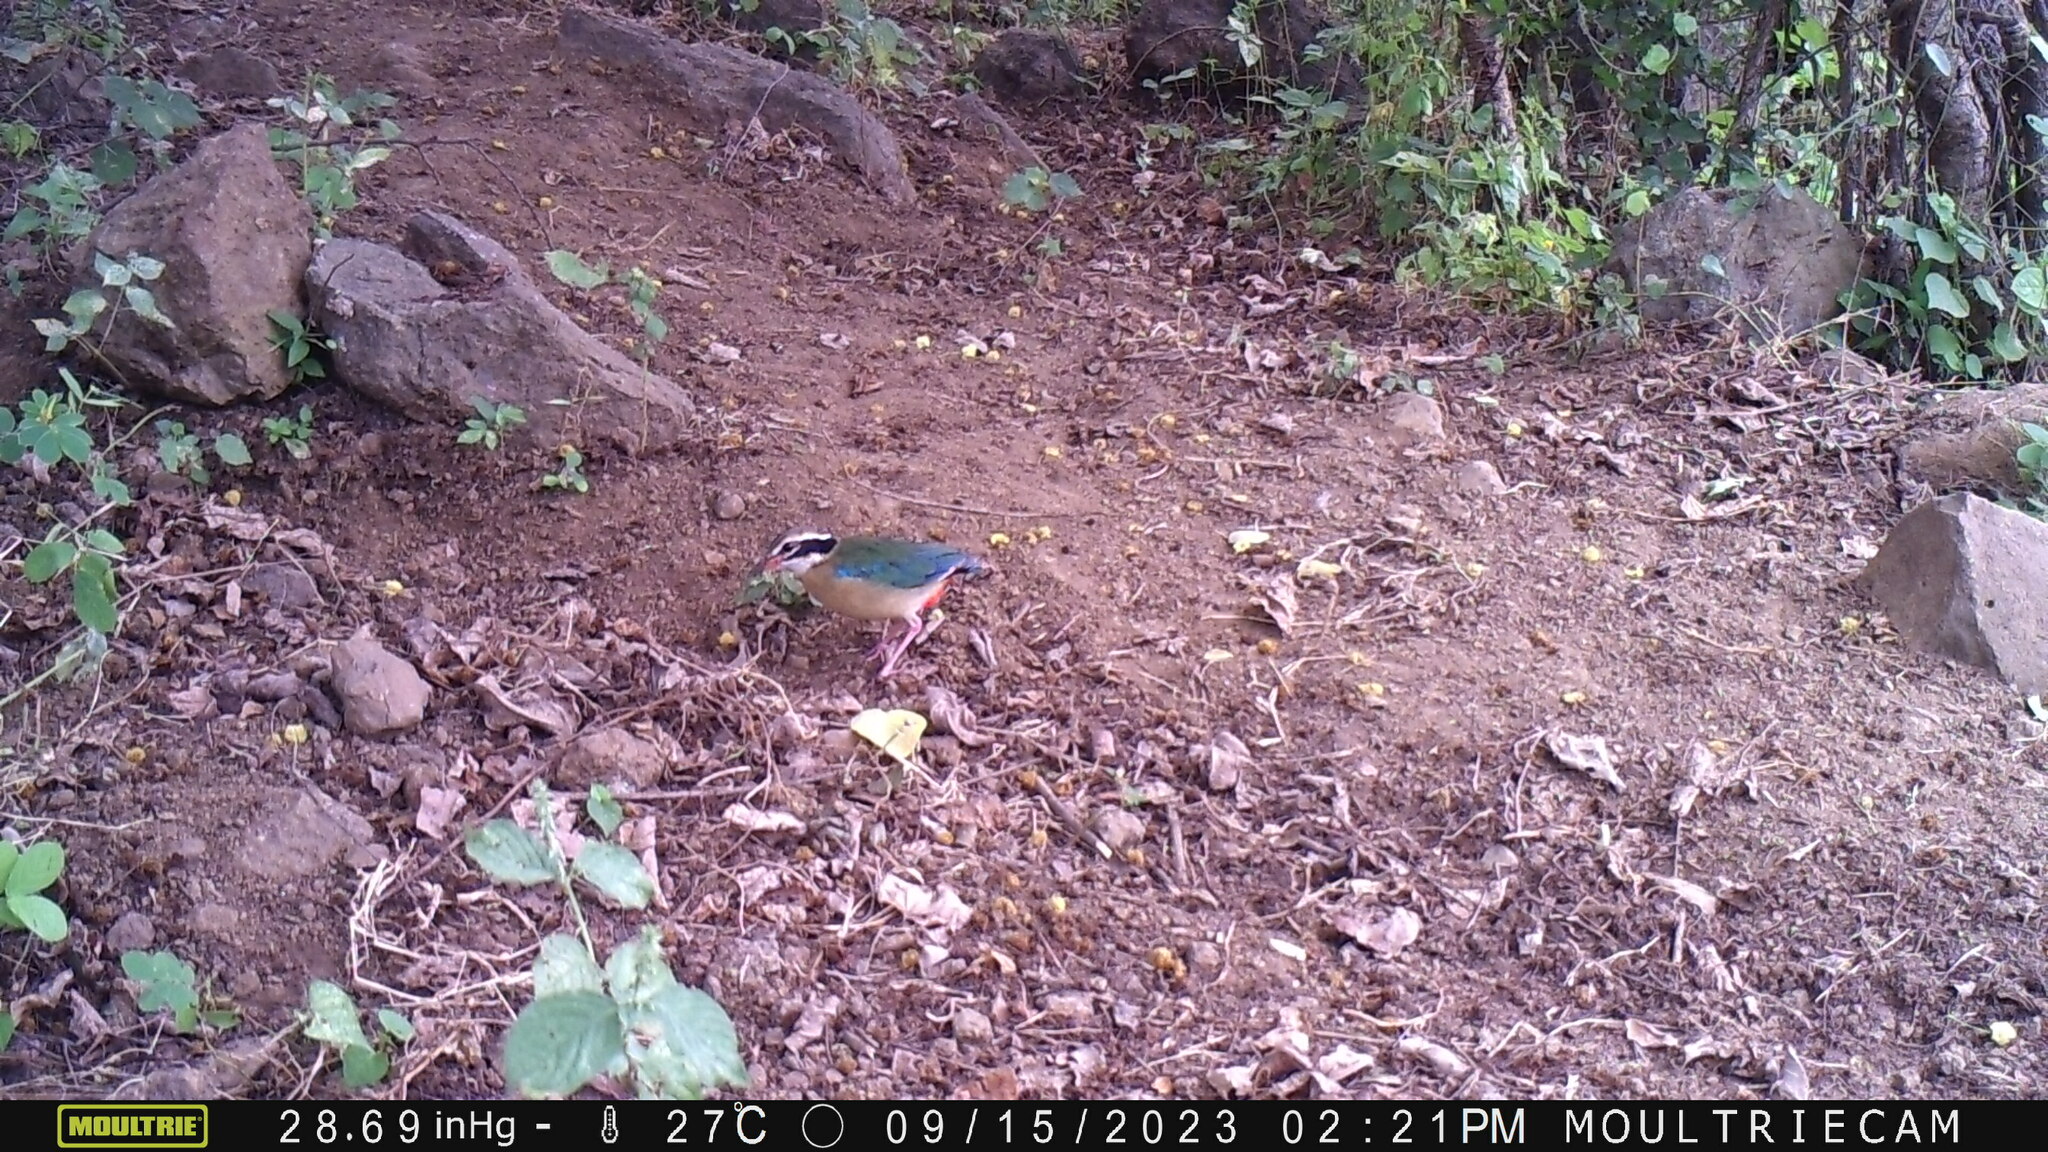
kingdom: Animalia
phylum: Chordata
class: Aves
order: Passeriformes
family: Pittidae
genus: Pitta
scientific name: Pitta brachyura
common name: Indian pitta
